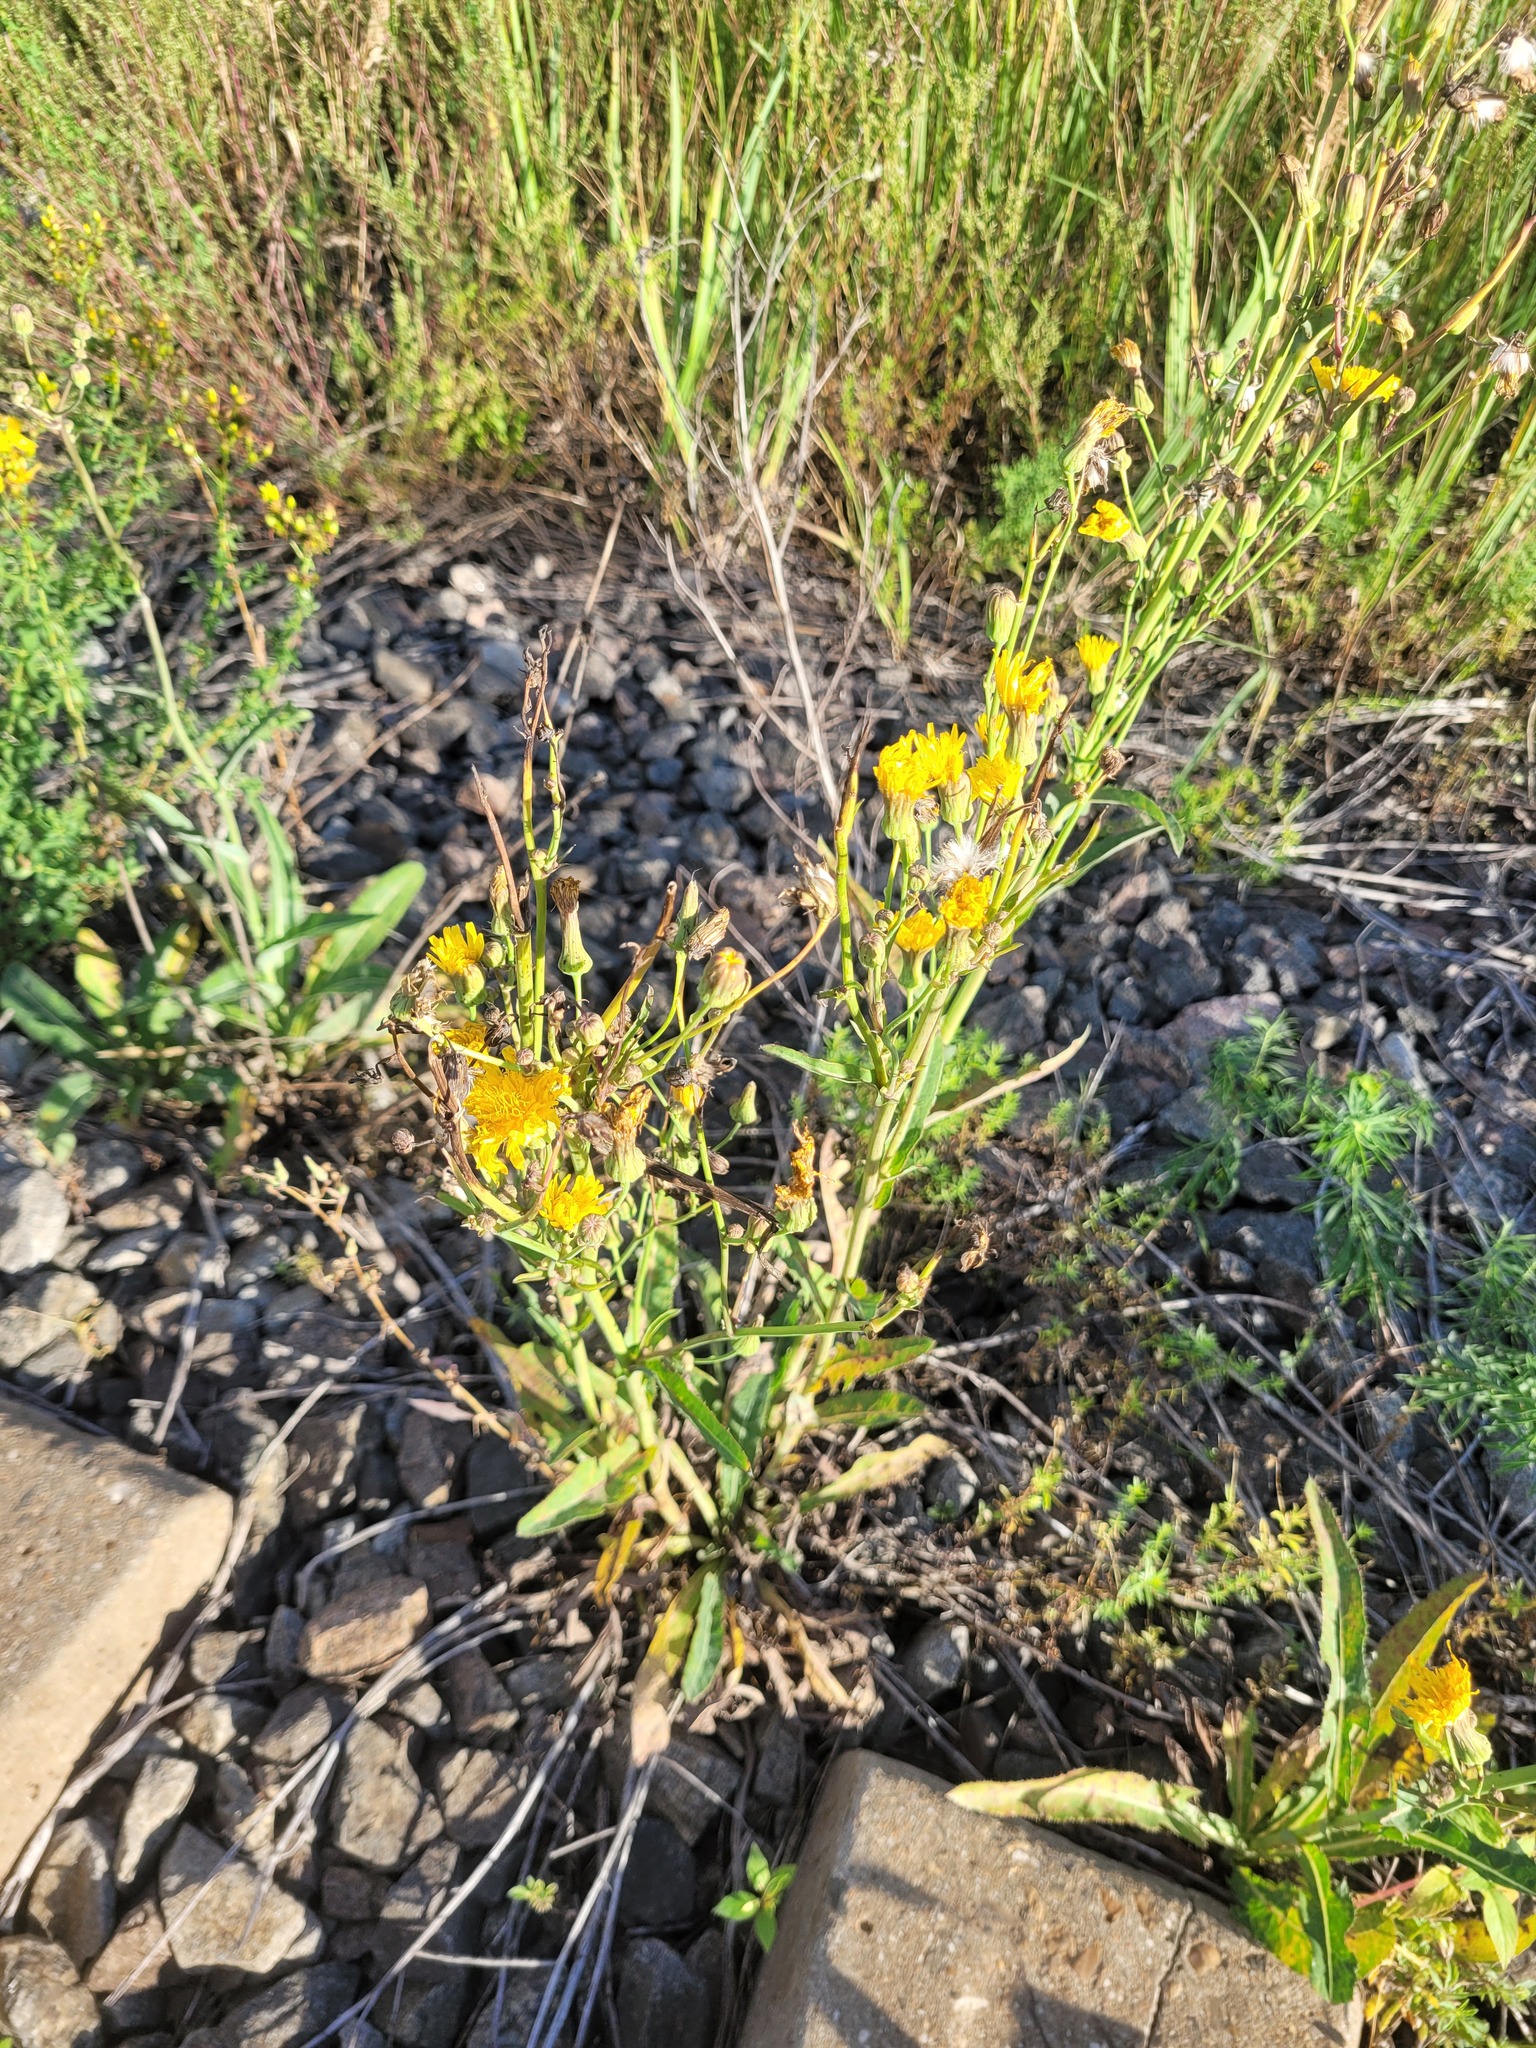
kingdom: Plantae
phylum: Tracheophyta
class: Magnoliopsida
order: Asterales
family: Asteraceae
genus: Sonchus
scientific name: Sonchus arvensis
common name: Perennial sow-thistle
